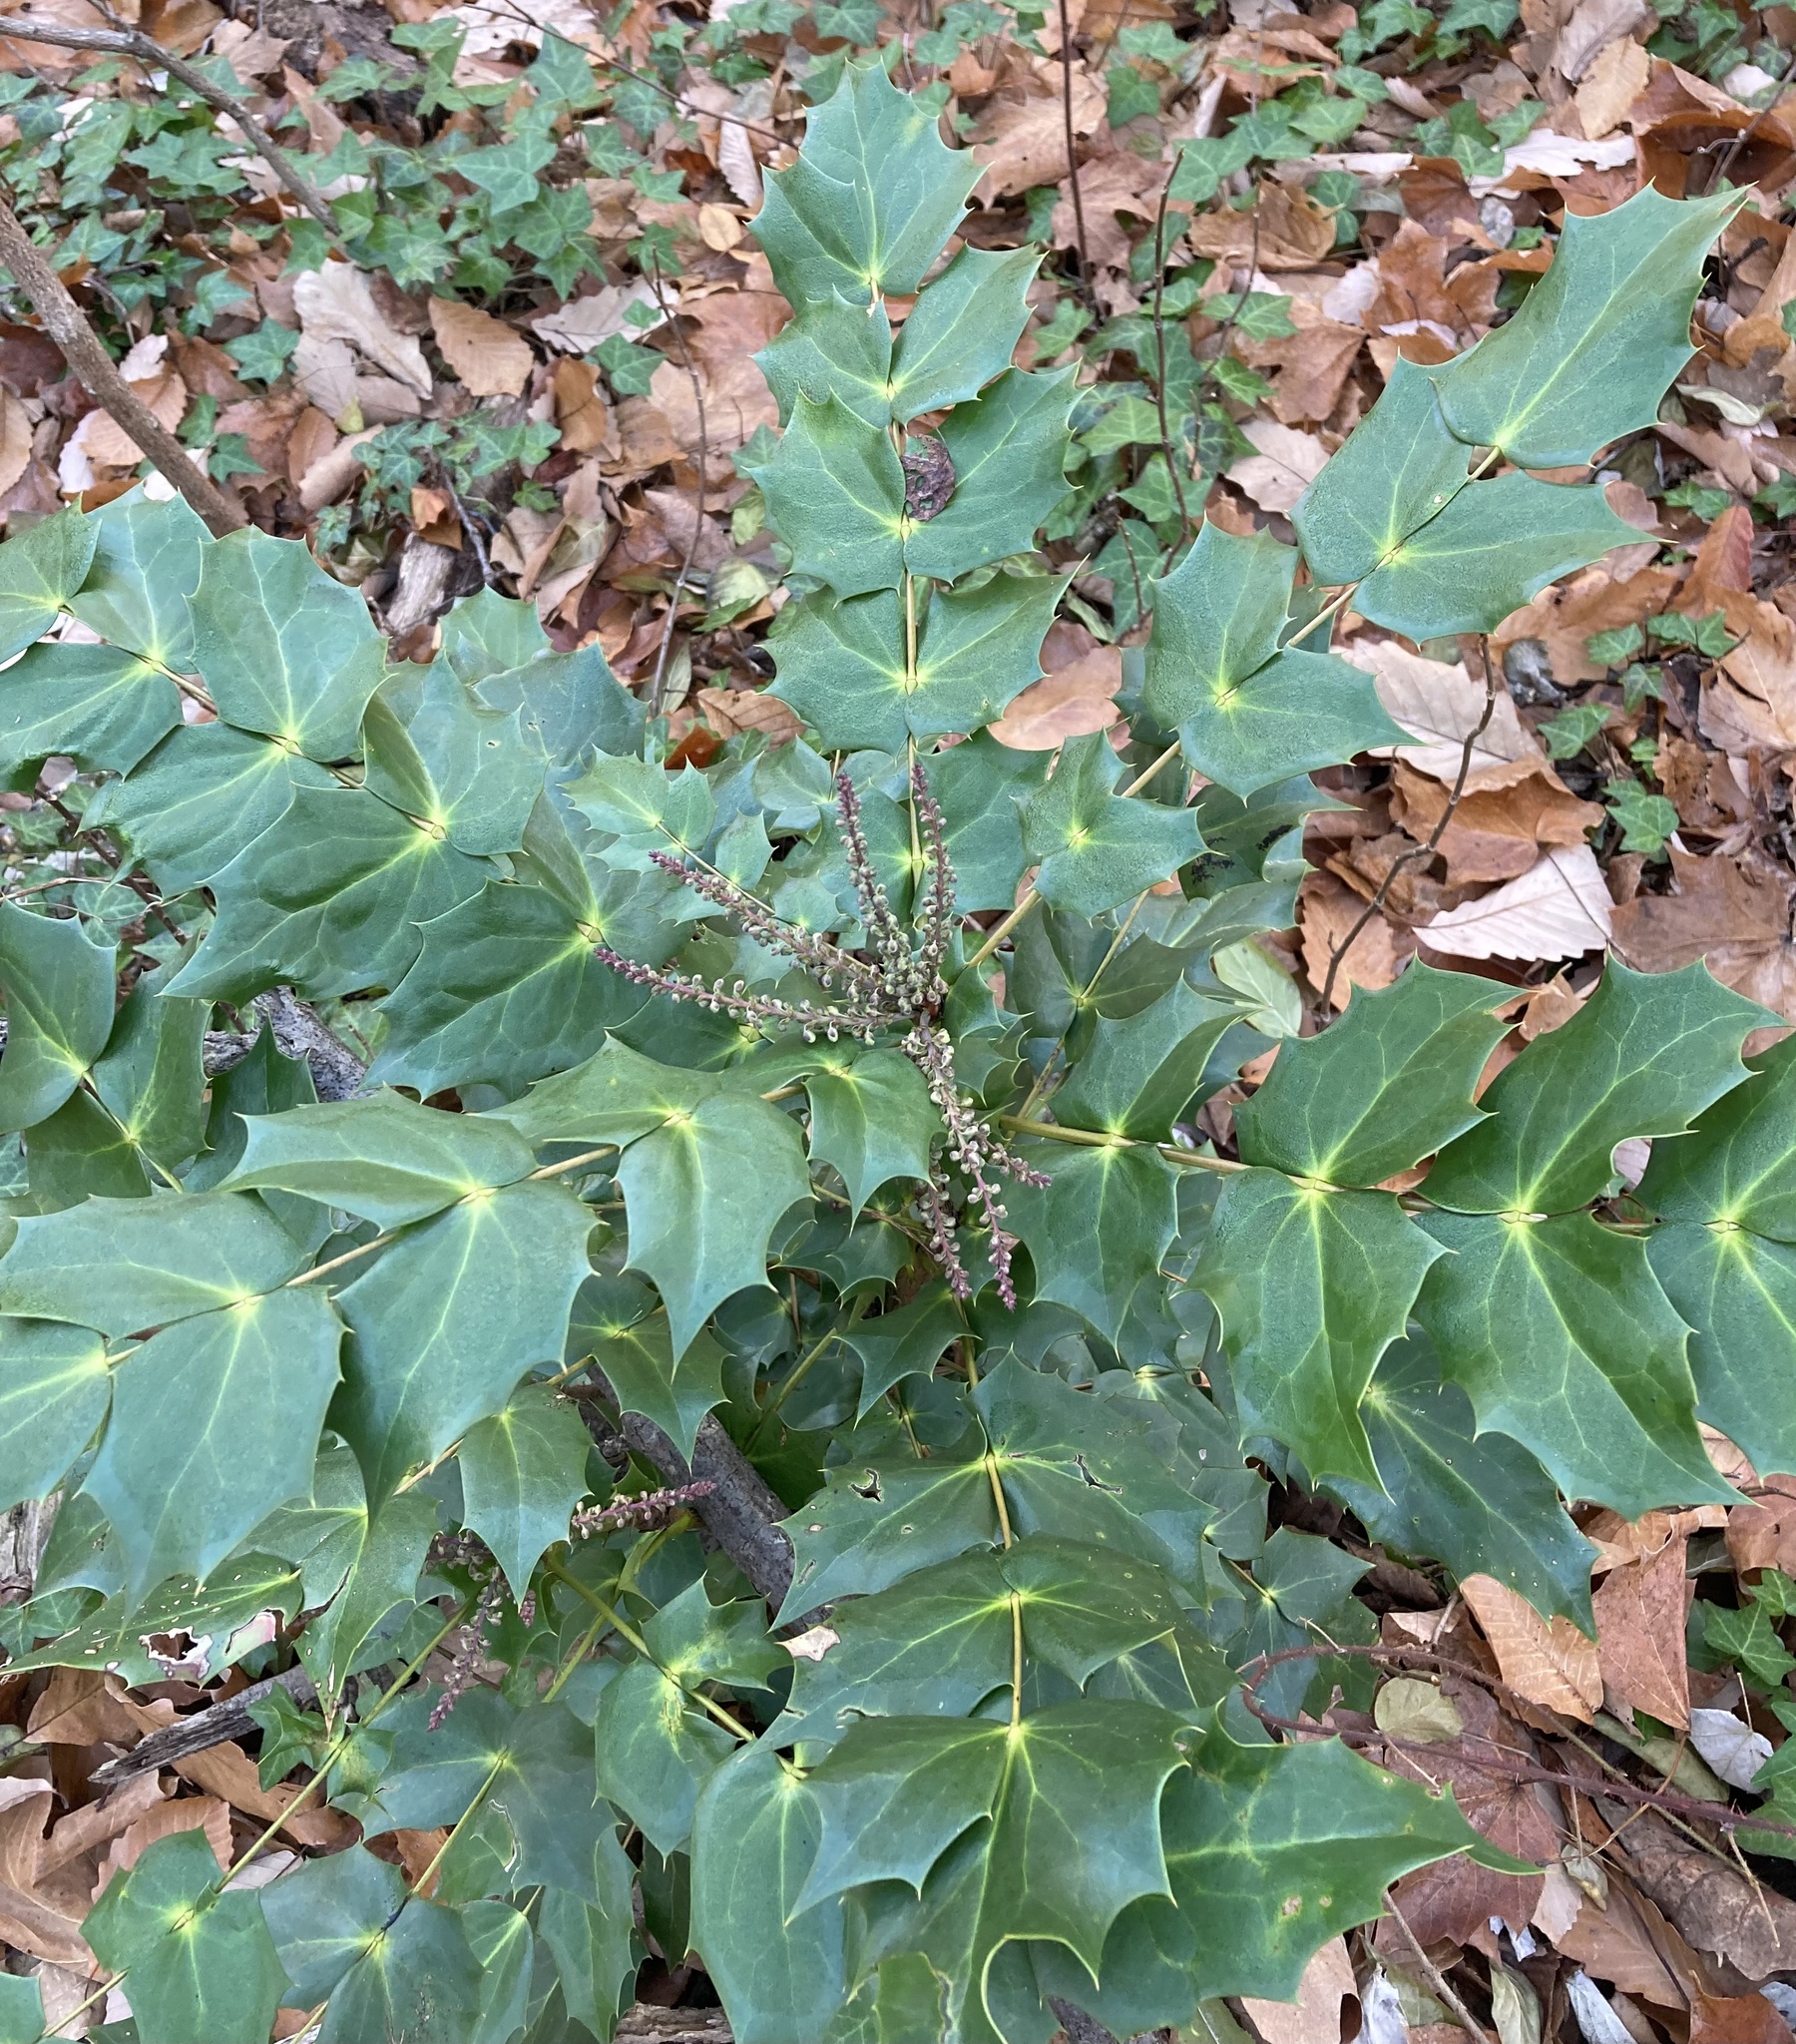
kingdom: Plantae
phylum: Tracheophyta
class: Magnoliopsida
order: Ranunculales
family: Berberidaceae
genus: Mahonia
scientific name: Mahonia bealei
